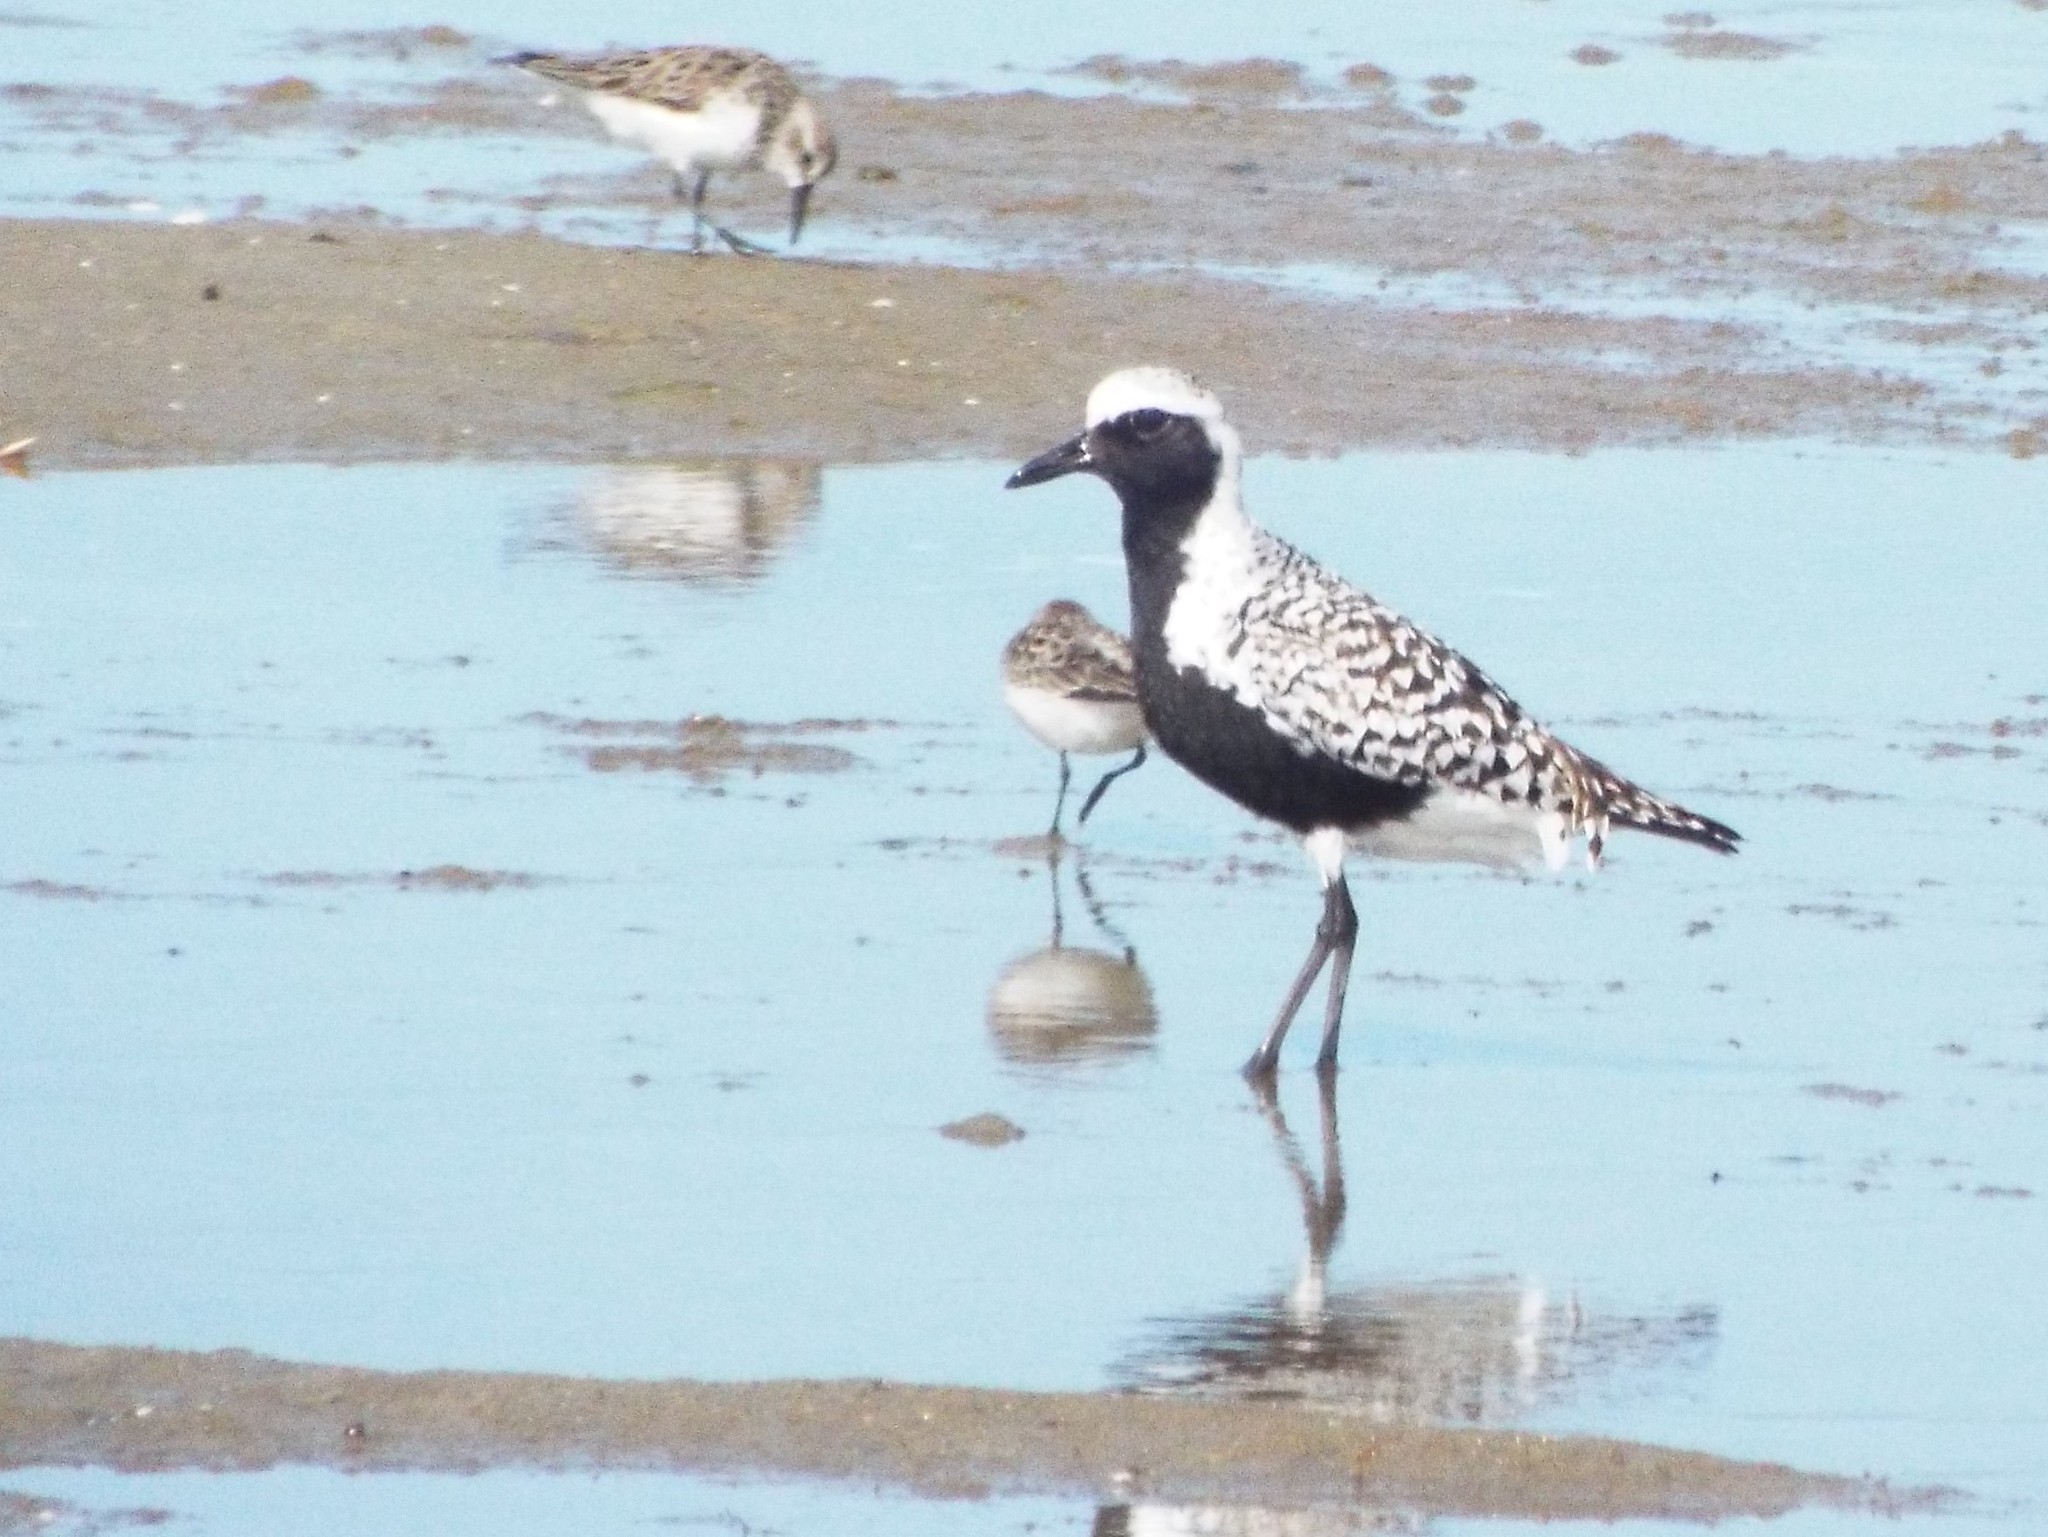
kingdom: Animalia
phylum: Chordata
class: Aves
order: Charadriiformes
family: Charadriidae
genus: Pluvialis
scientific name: Pluvialis squatarola
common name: Grey plover
